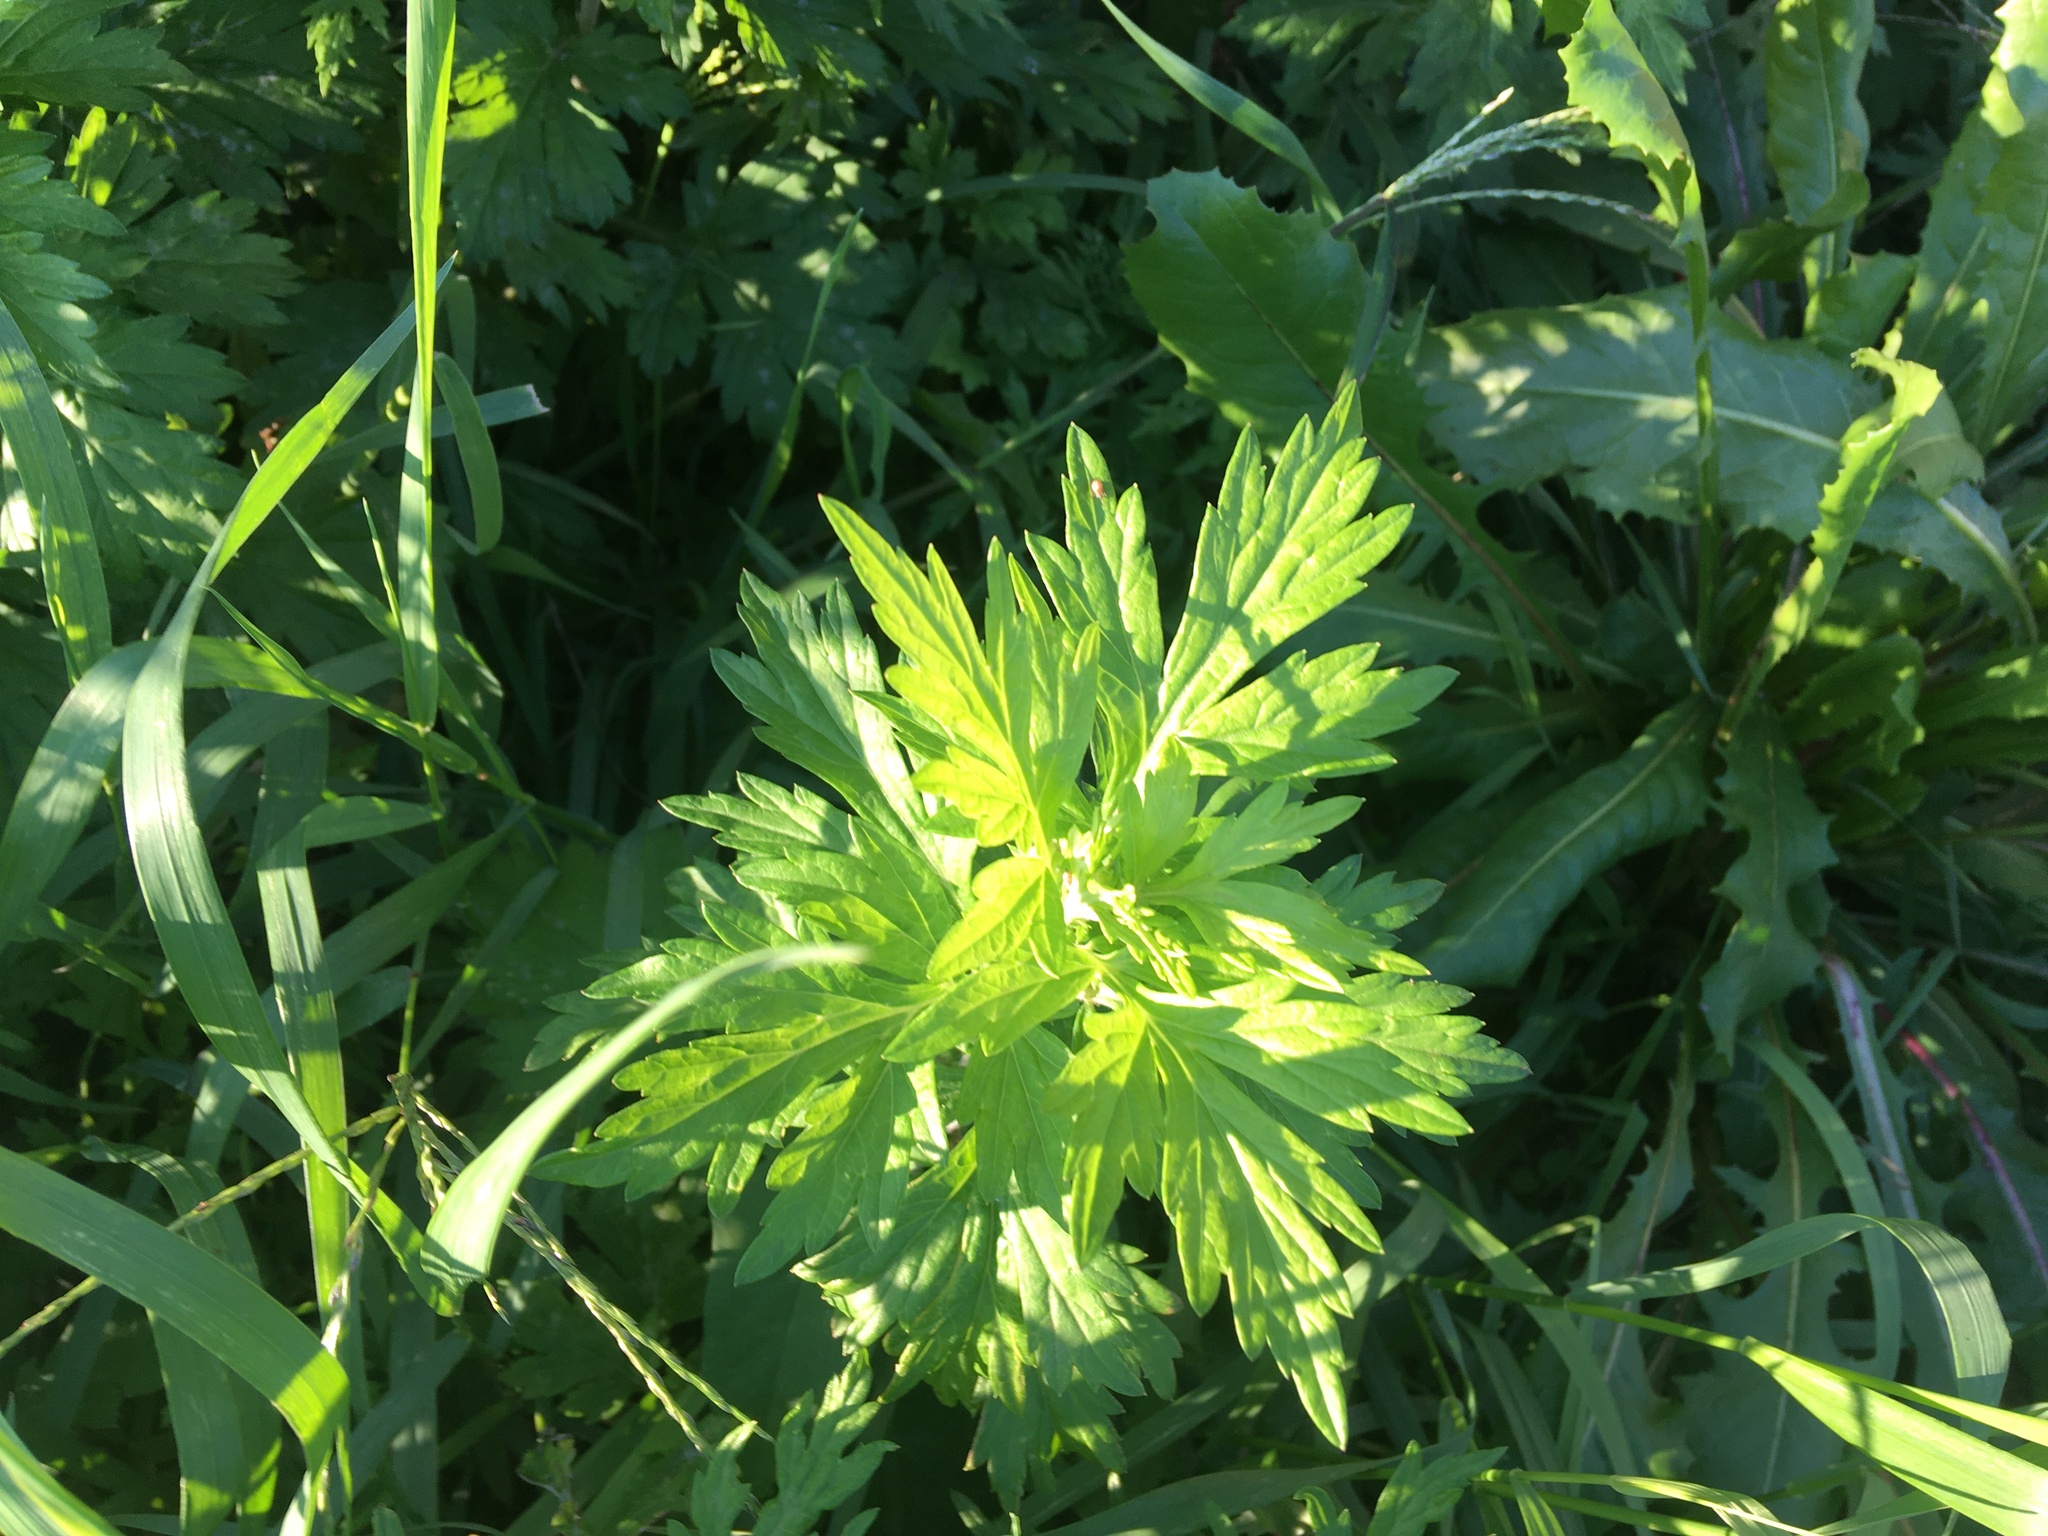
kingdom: Plantae
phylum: Tracheophyta
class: Magnoliopsida
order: Asterales
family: Asteraceae
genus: Artemisia
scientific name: Artemisia vulgaris
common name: Mugwort
